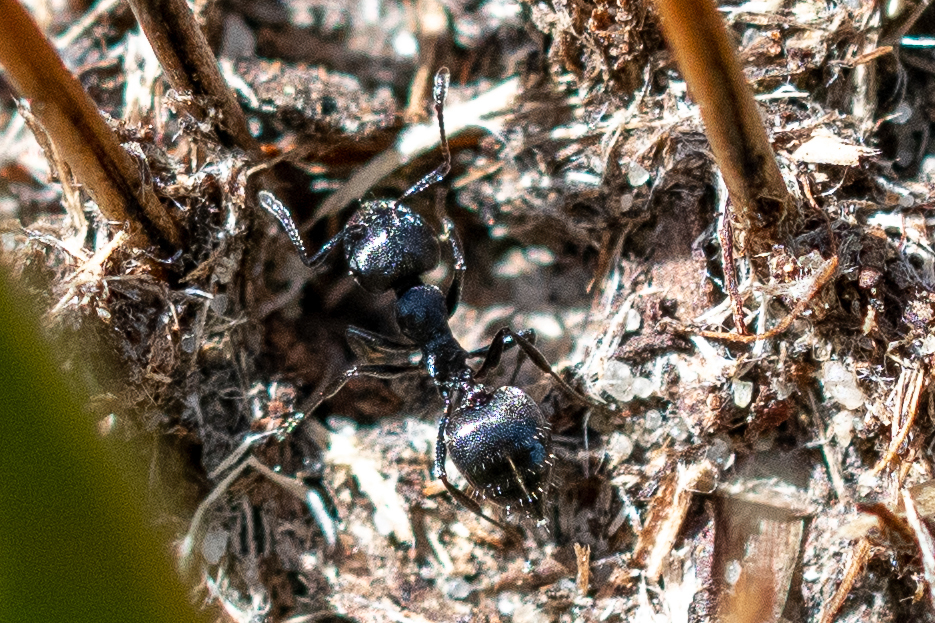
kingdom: Animalia
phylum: Arthropoda
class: Insecta
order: Hymenoptera
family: Formicidae
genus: Crematogaster
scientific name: Crematogaster peringueyi
